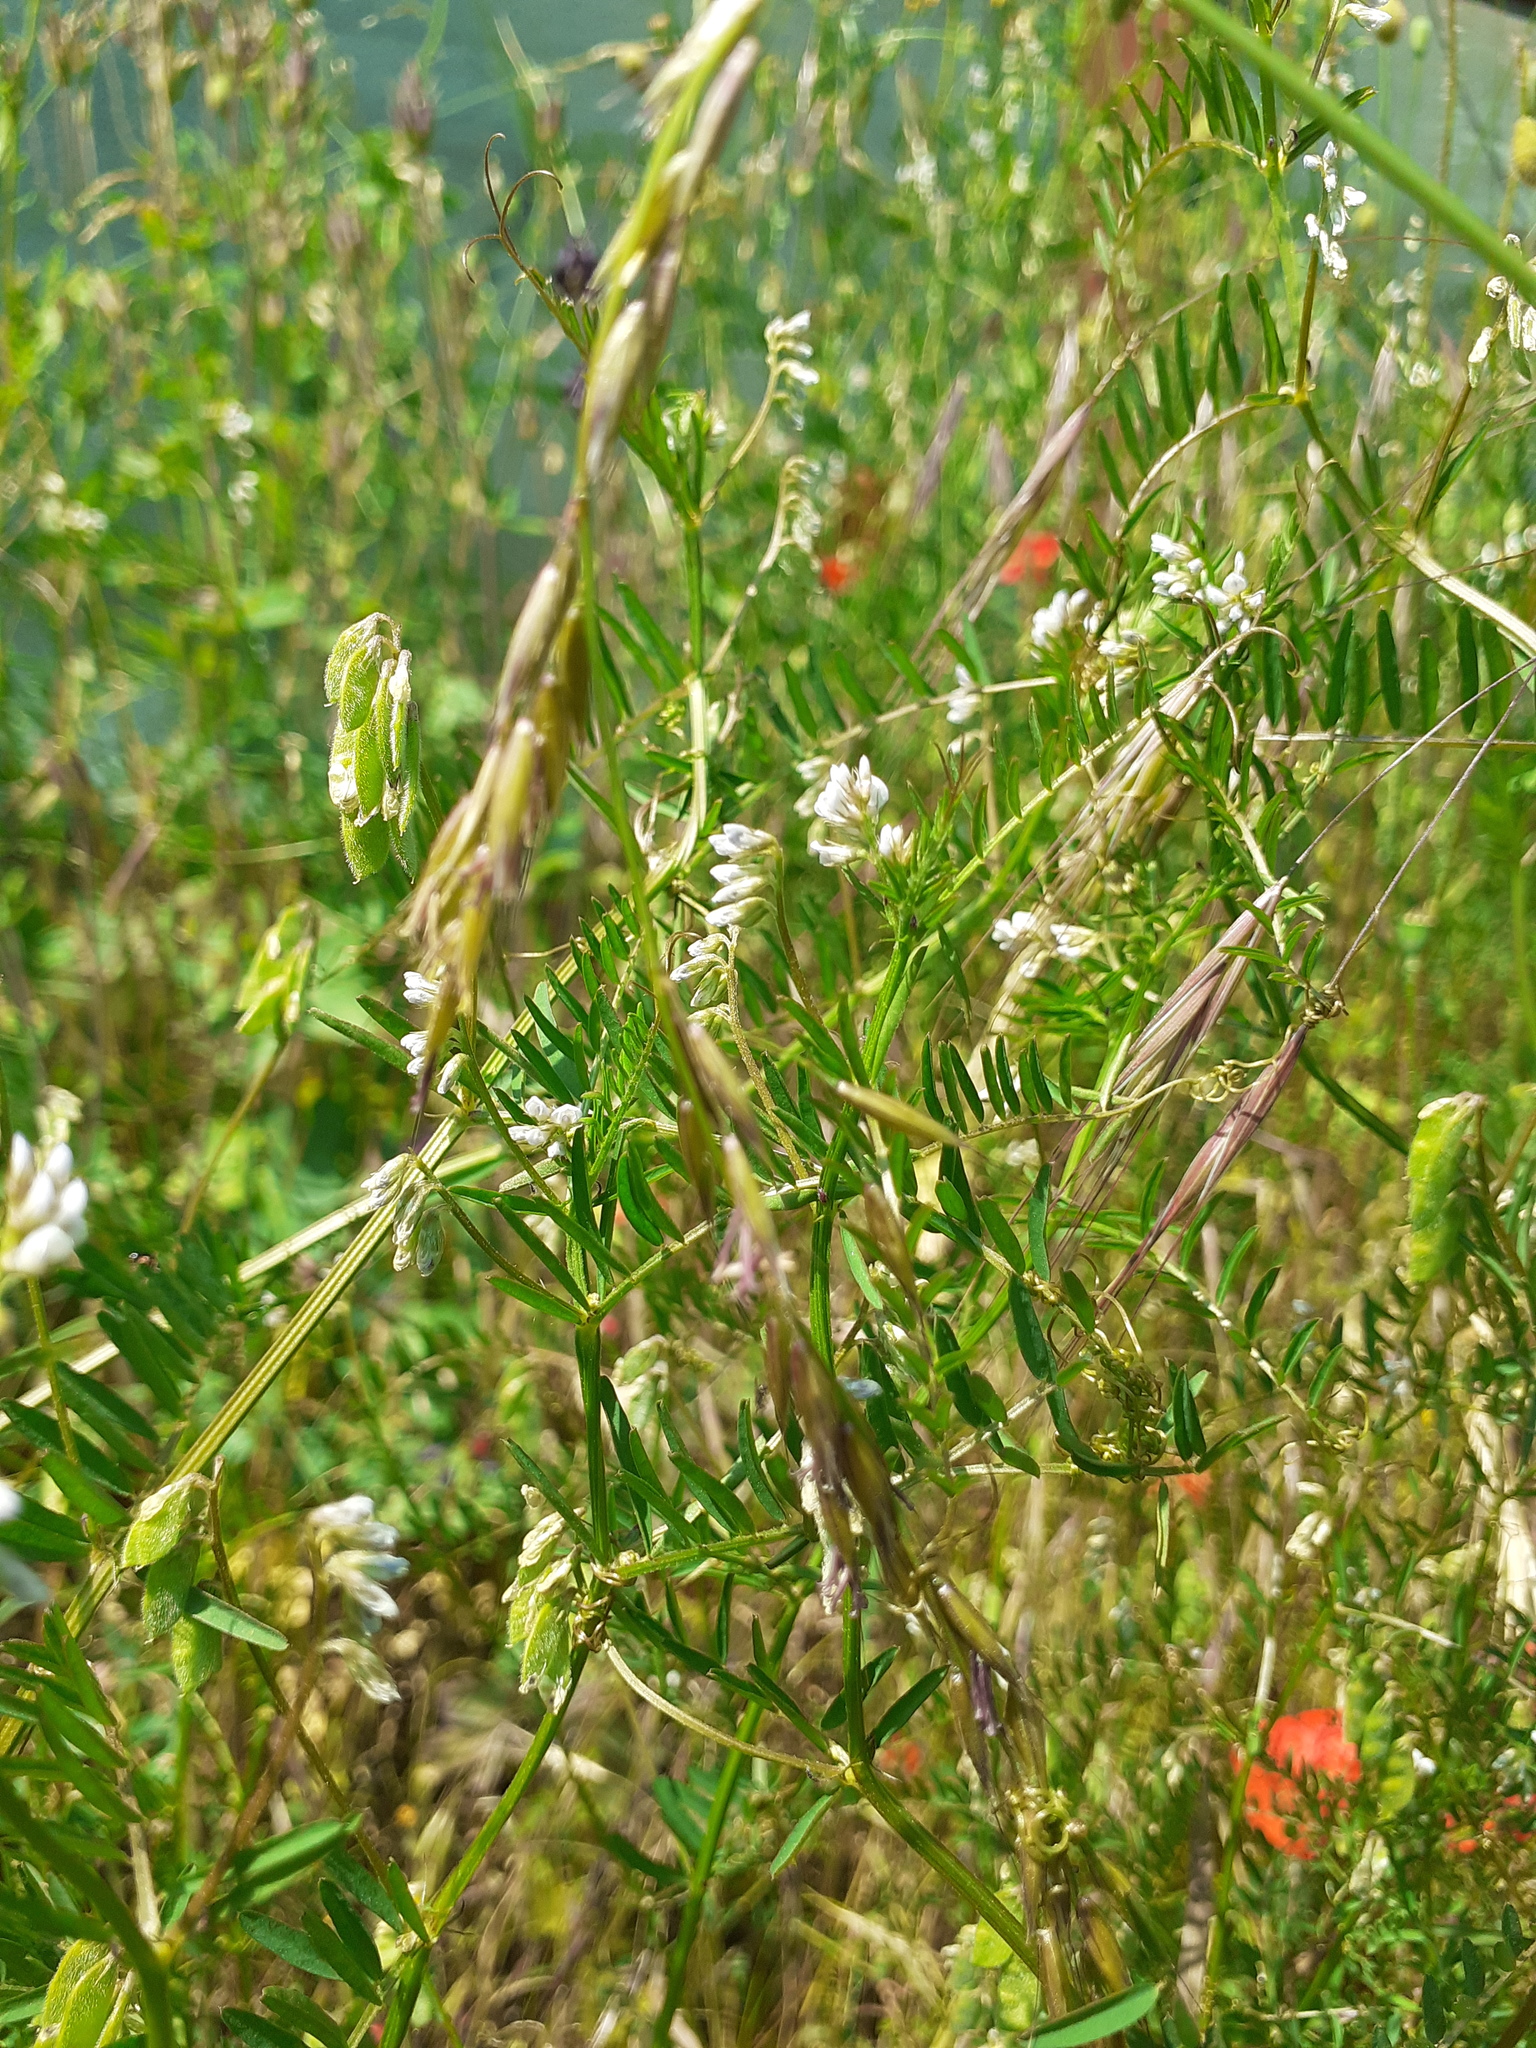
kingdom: Plantae
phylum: Tracheophyta
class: Magnoliopsida
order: Fabales
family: Fabaceae
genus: Vicia
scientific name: Vicia hirsuta
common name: Tiny vetch
